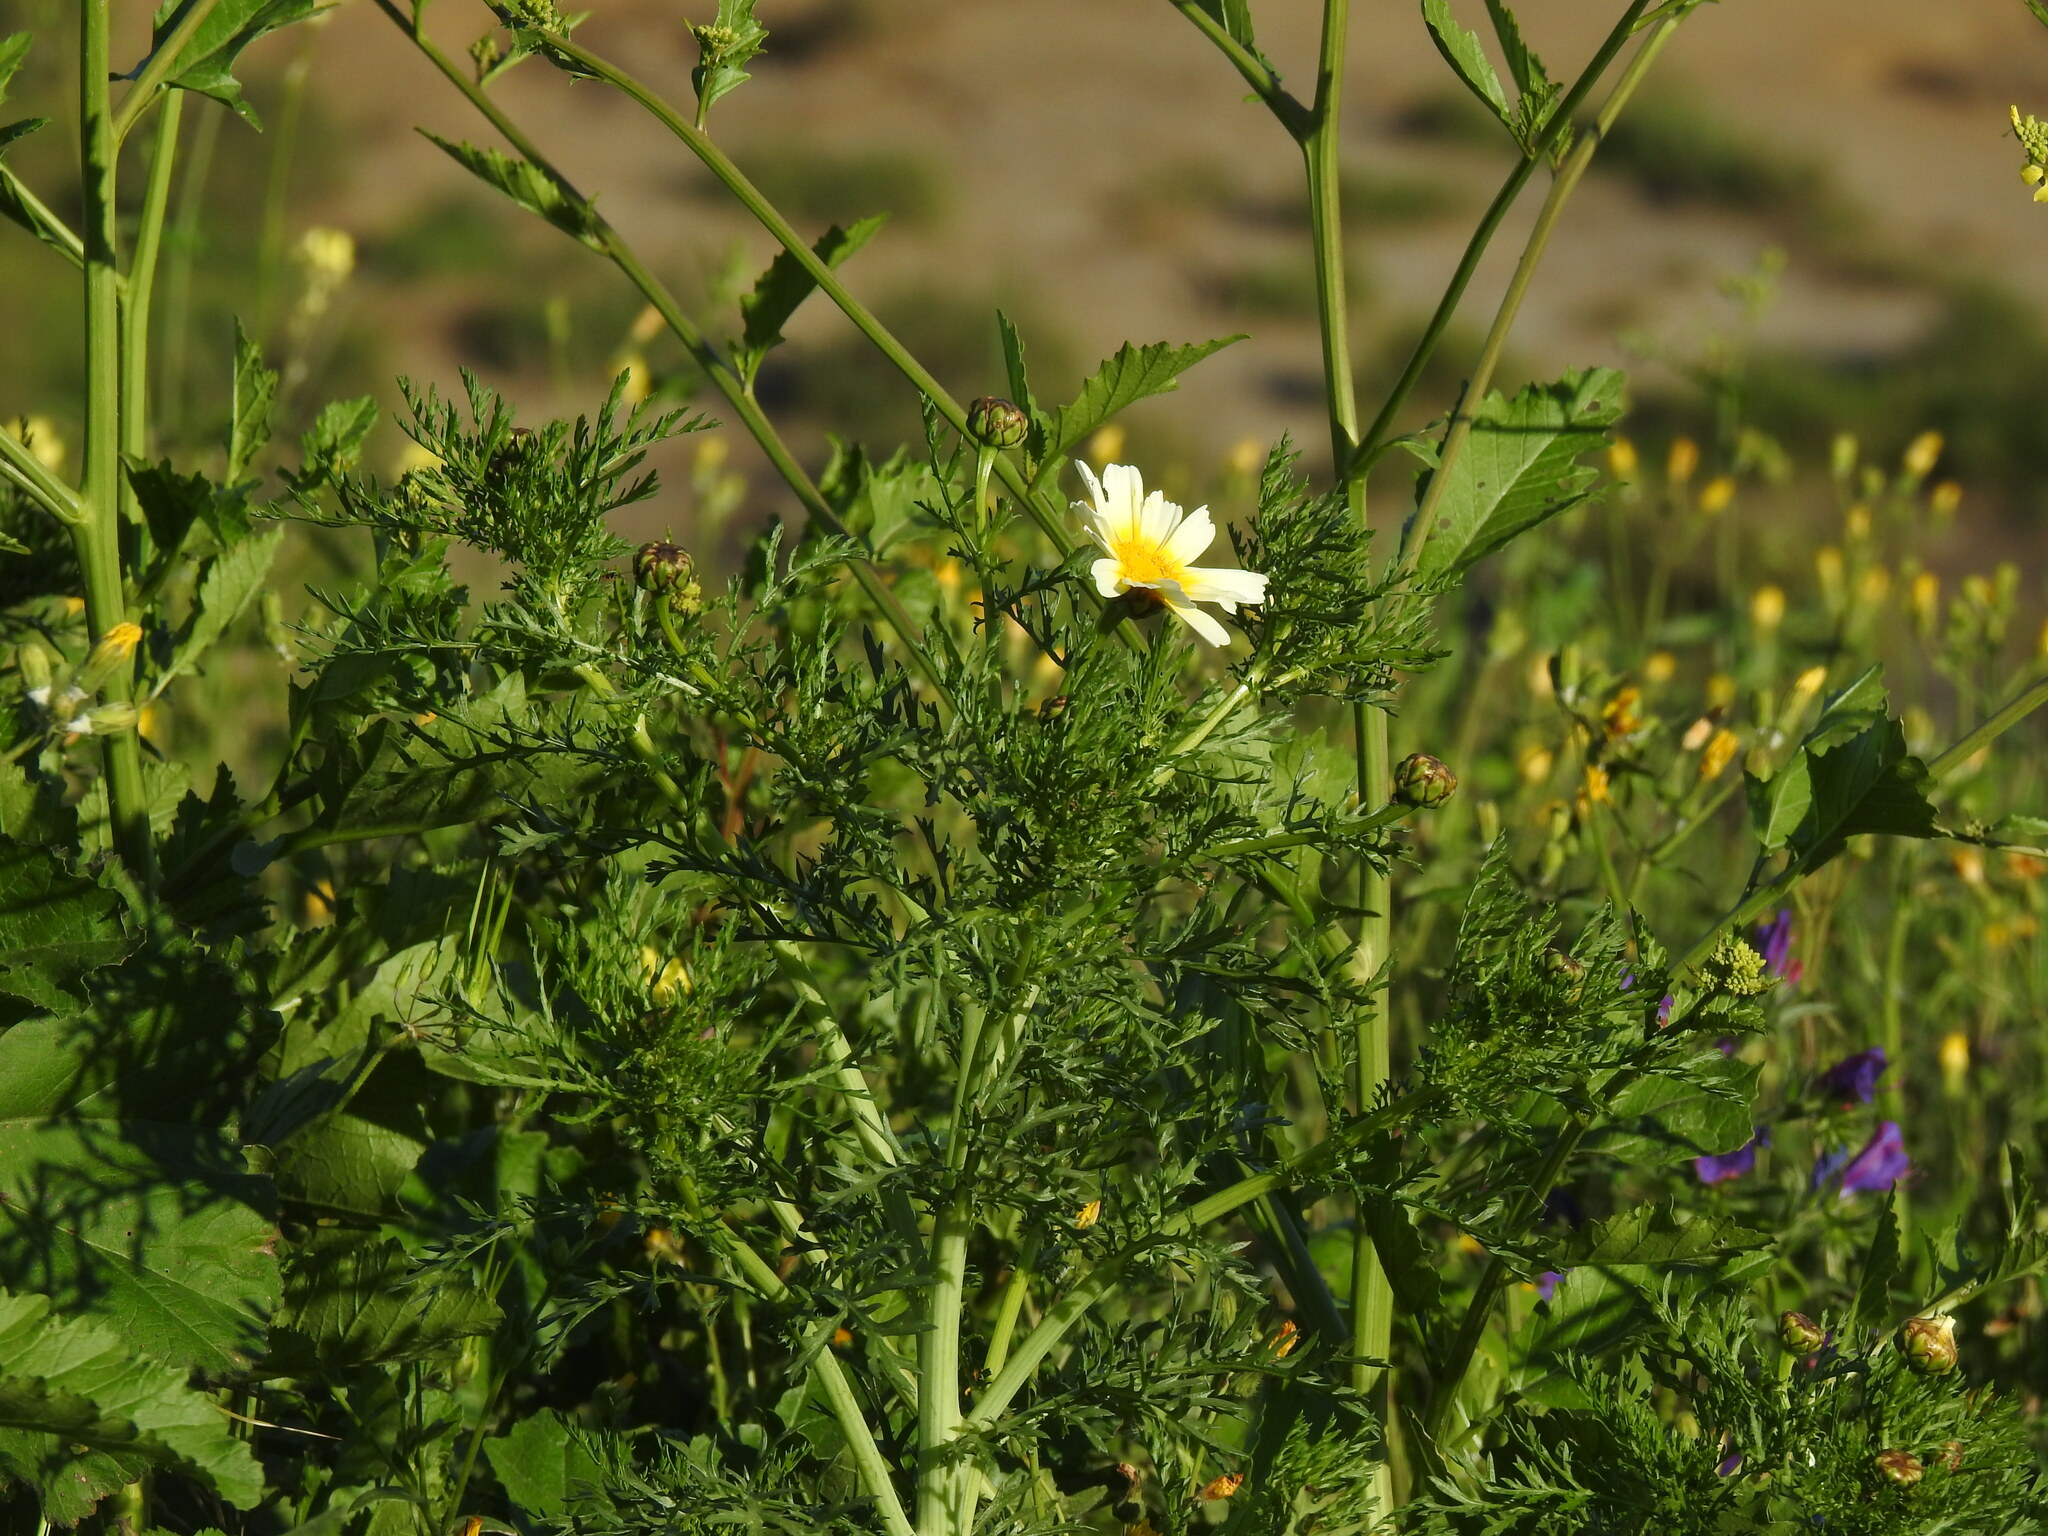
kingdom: Plantae
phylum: Tracheophyta
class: Magnoliopsida
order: Asterales
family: Asteraceae
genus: Glebionis
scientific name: Glebionis coronaria
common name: Crowndaisy
